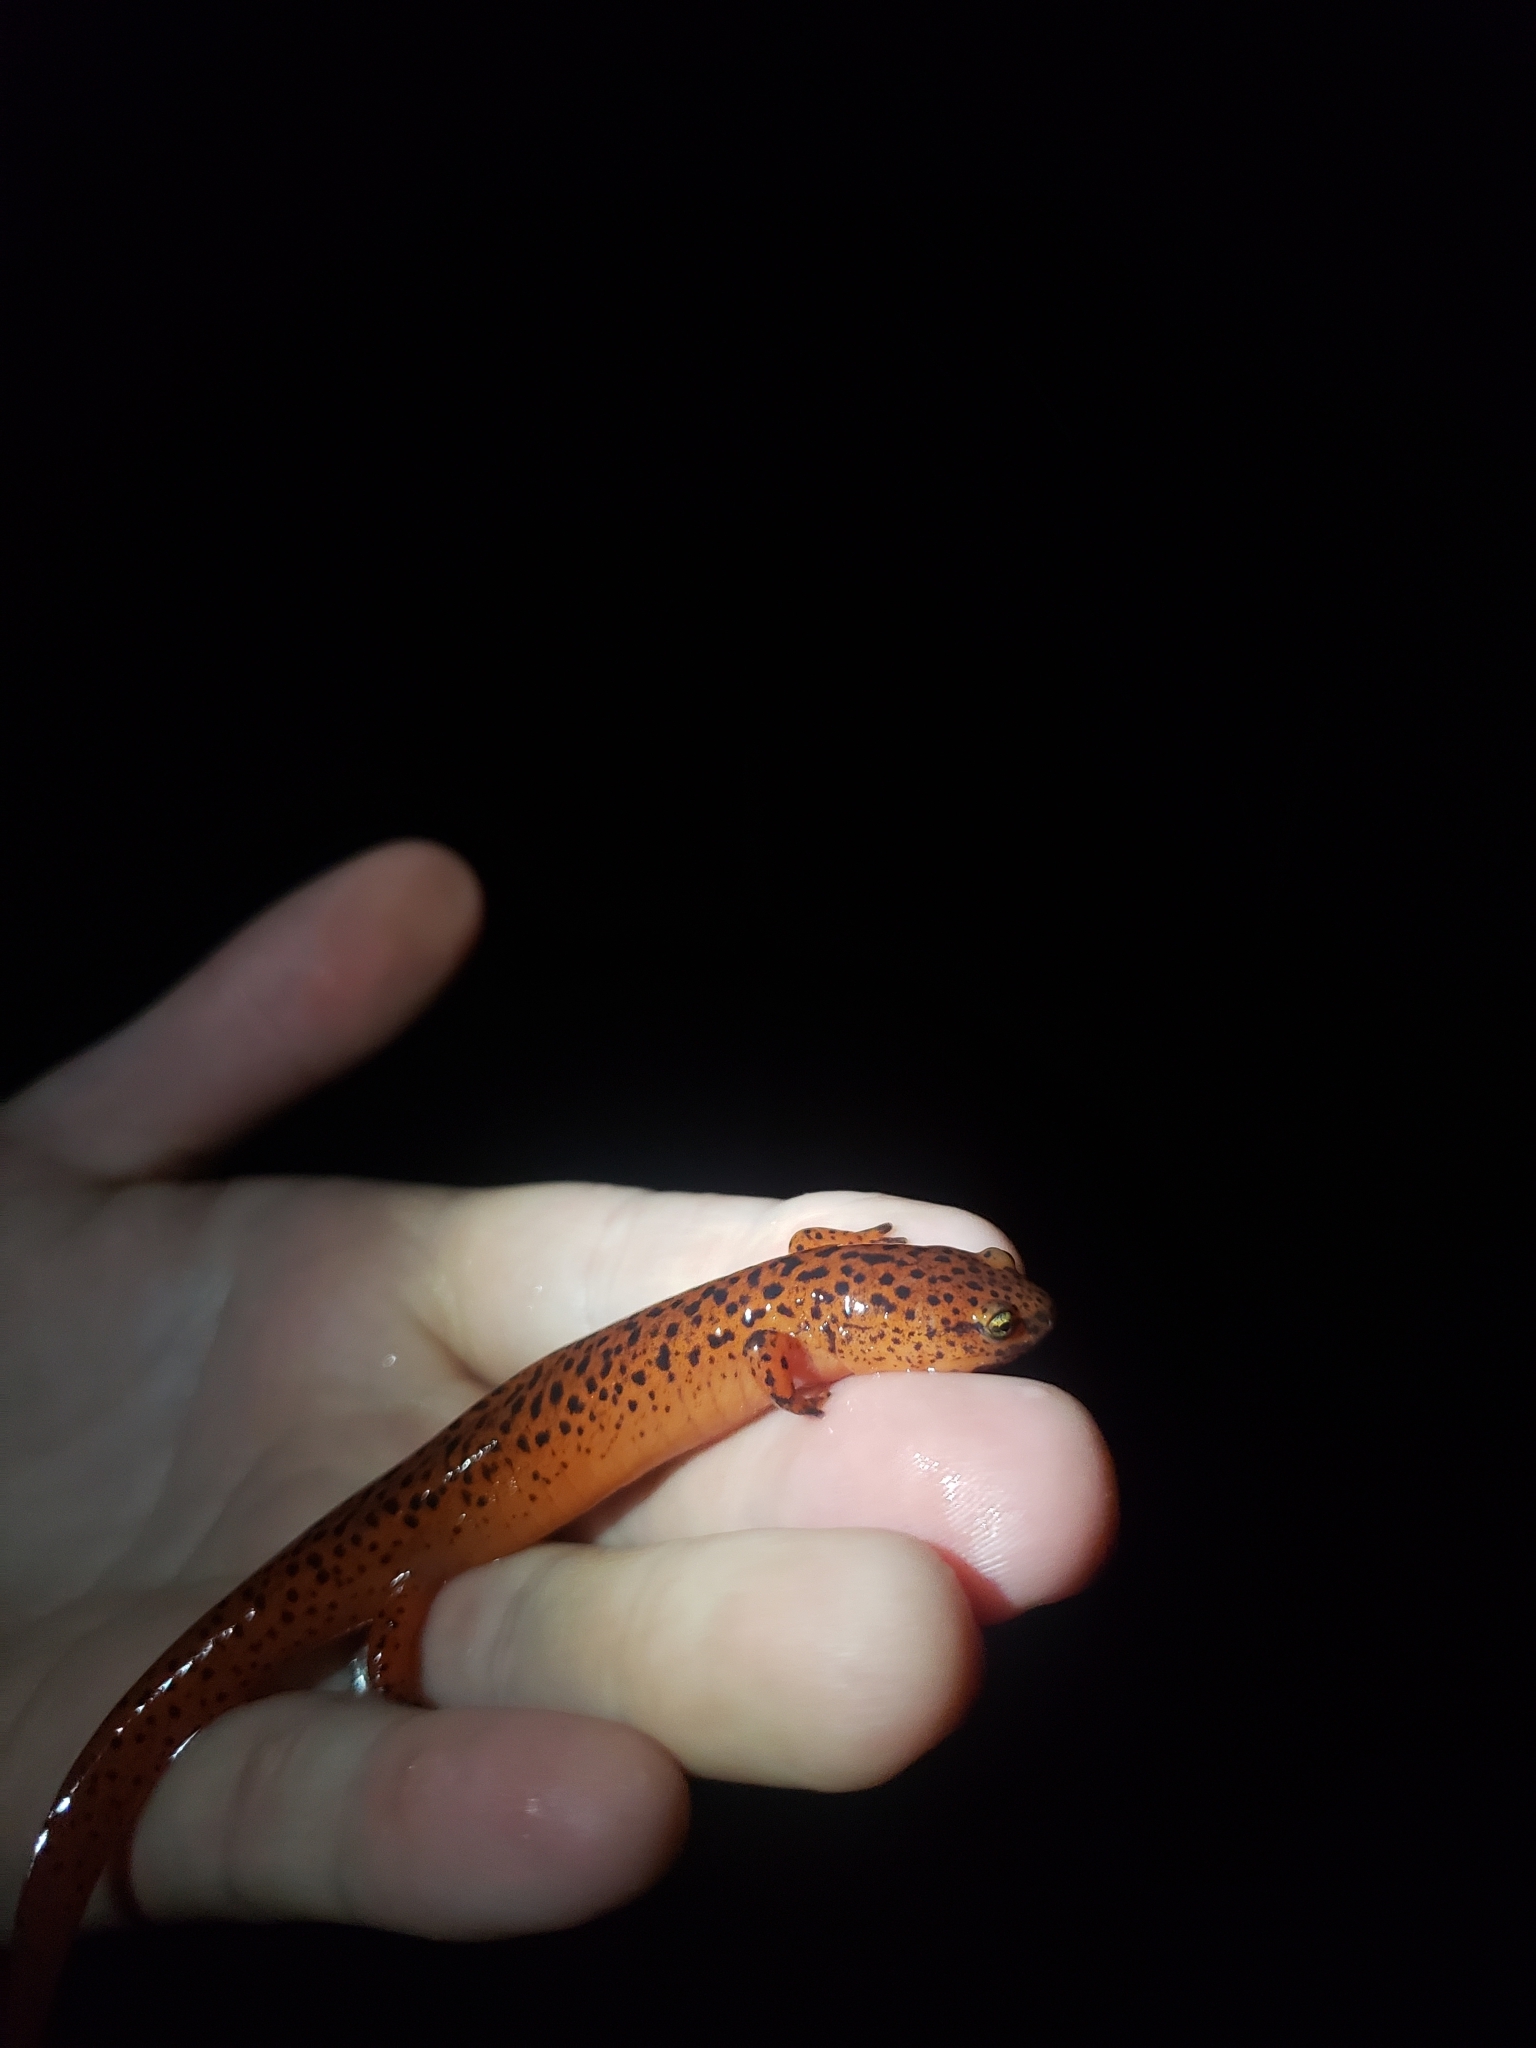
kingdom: Animalia
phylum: Chordata
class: Amphibia
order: Caudata
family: Plethodontidae
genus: Pseudotriton
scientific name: Pseudotriton ruber
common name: Red salamander
